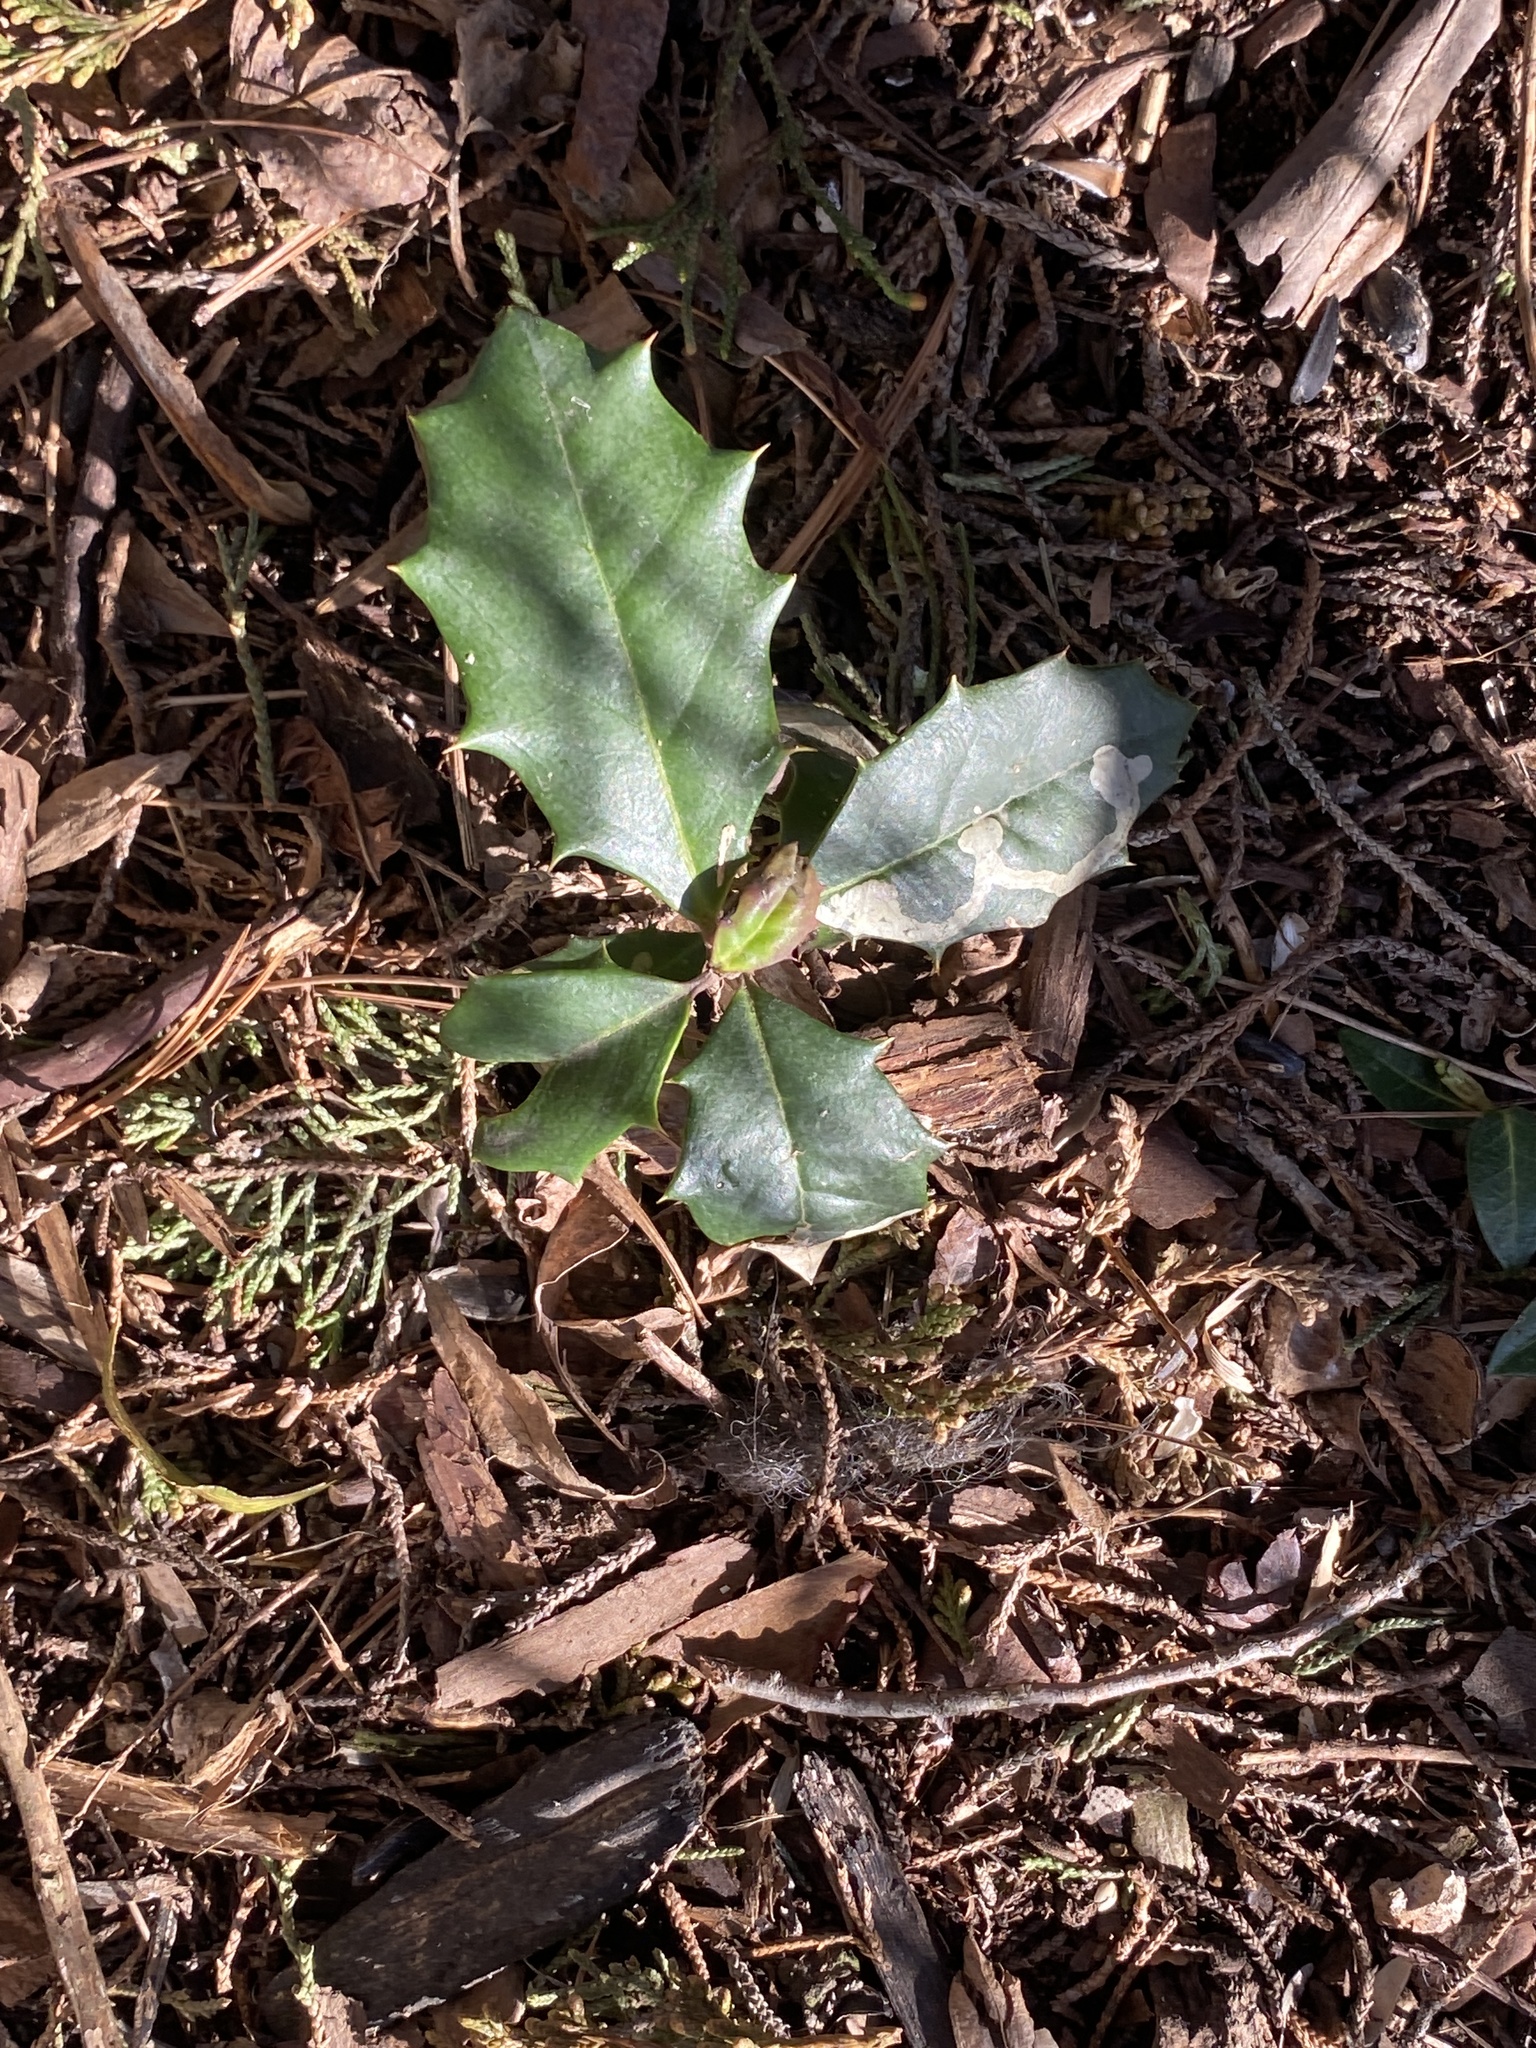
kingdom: Plantae
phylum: Tracheophyta
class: Magnoliopsida
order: Aquifoliales
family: Aquifoliaceae
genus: Ilex
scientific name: Ilex opaca
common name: American holly
